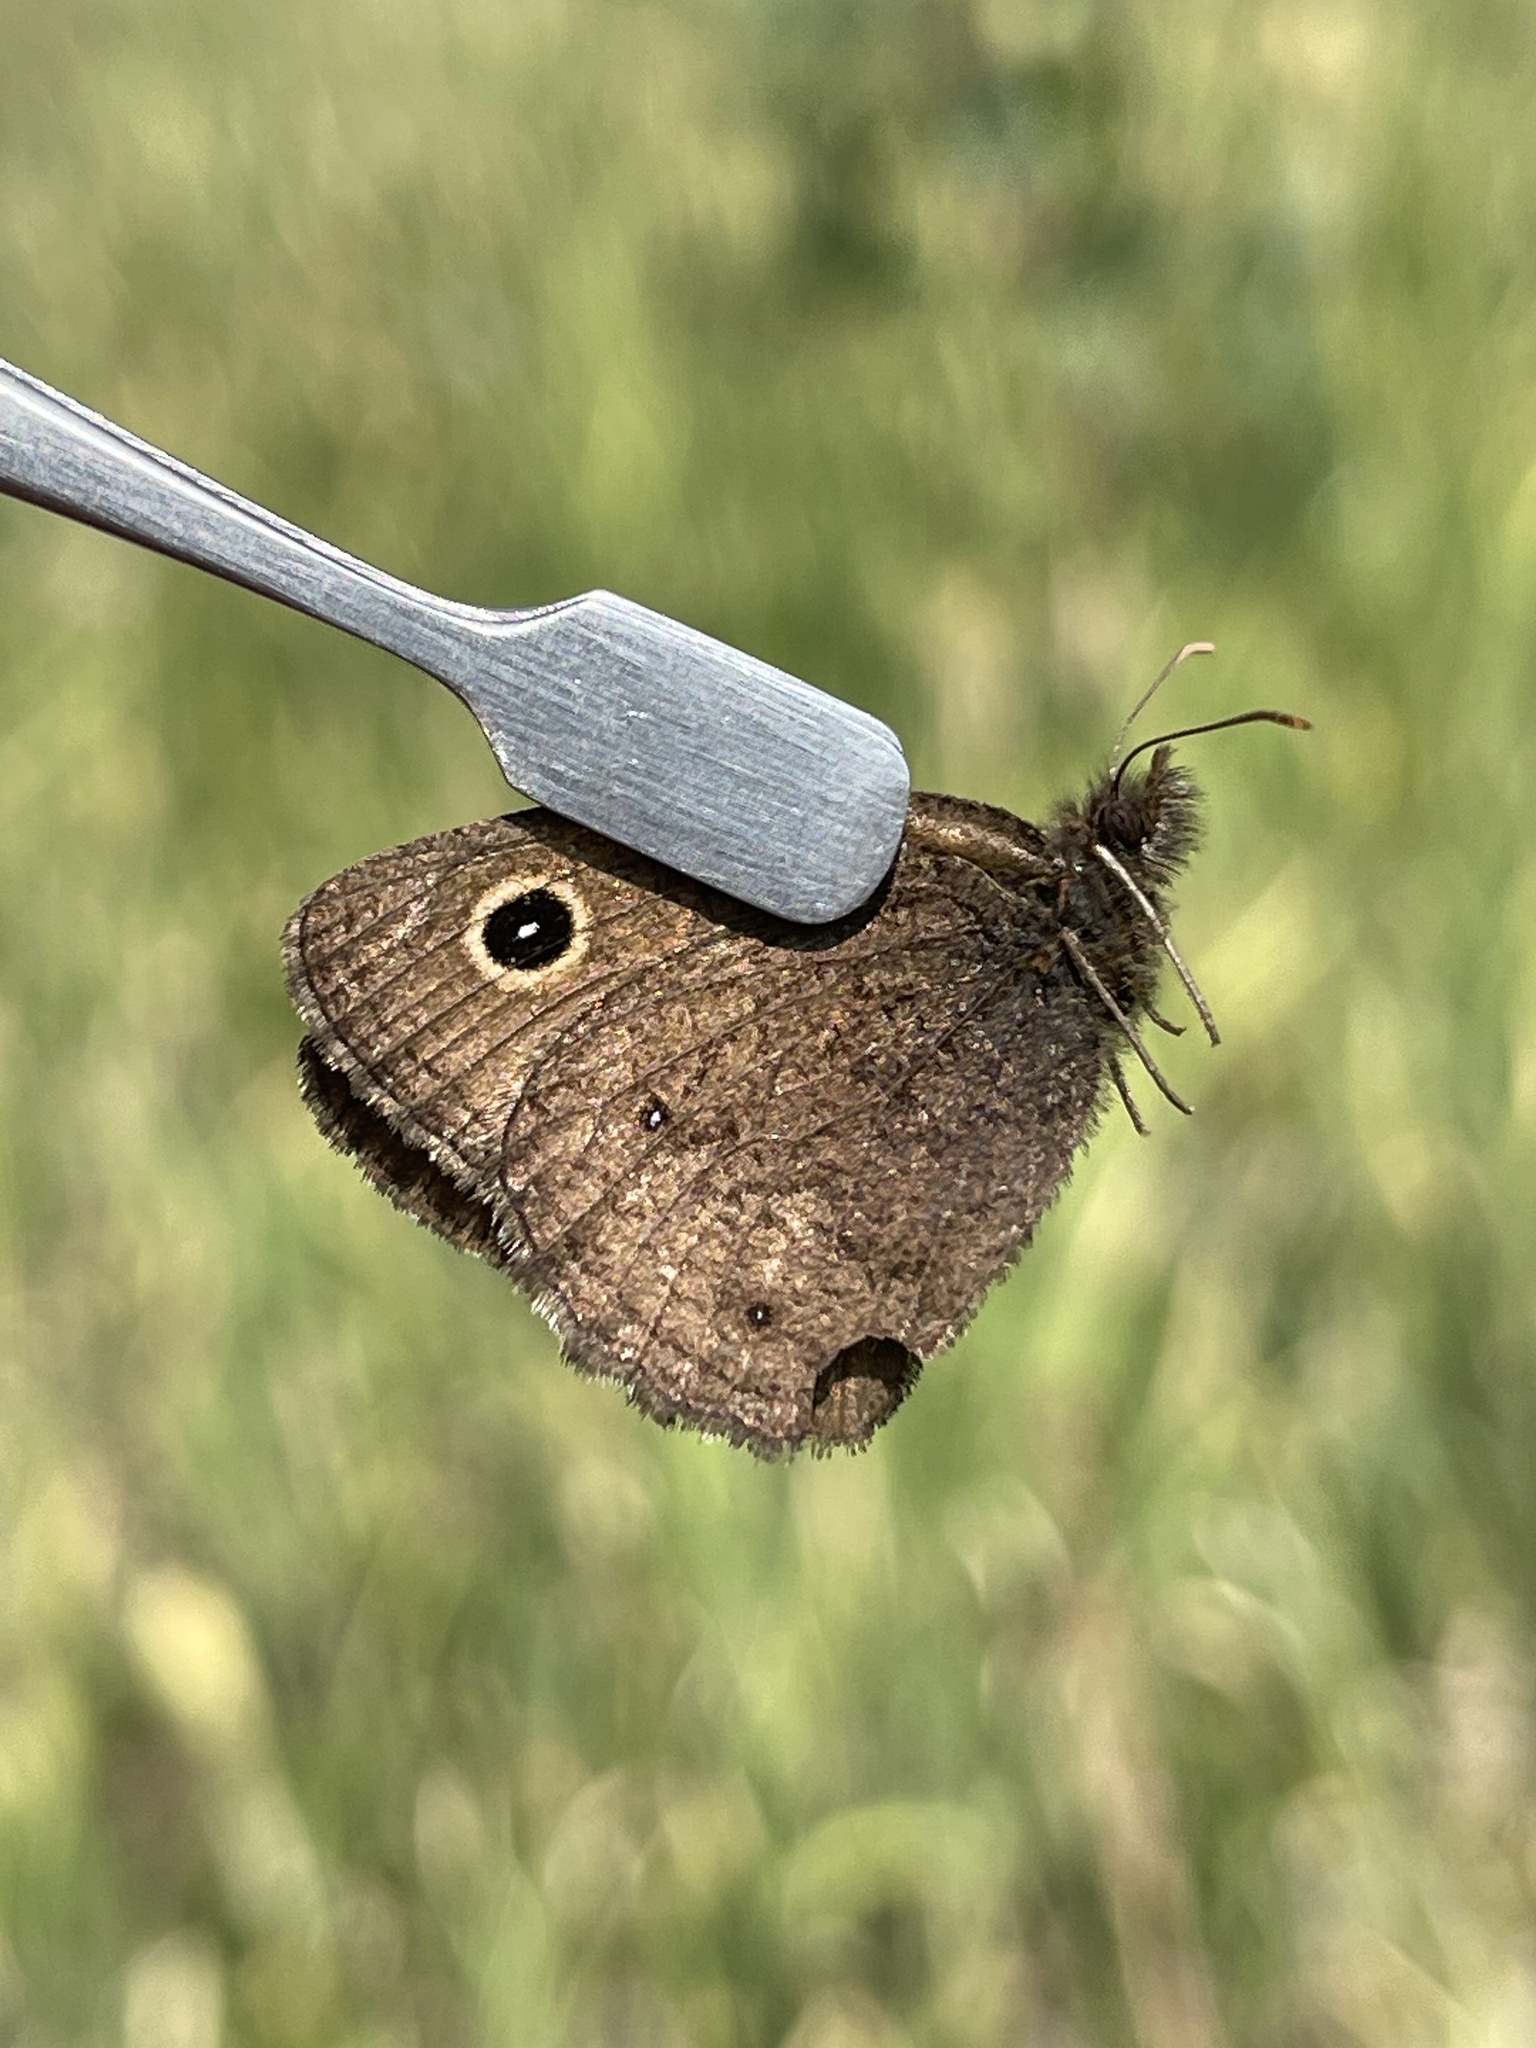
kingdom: Animalia
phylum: Arthropoda
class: Insecta
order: Lepidoptera
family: Nymphalidae
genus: Cercyonis
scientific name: Cercyonis oetus
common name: Small wood-nymph
